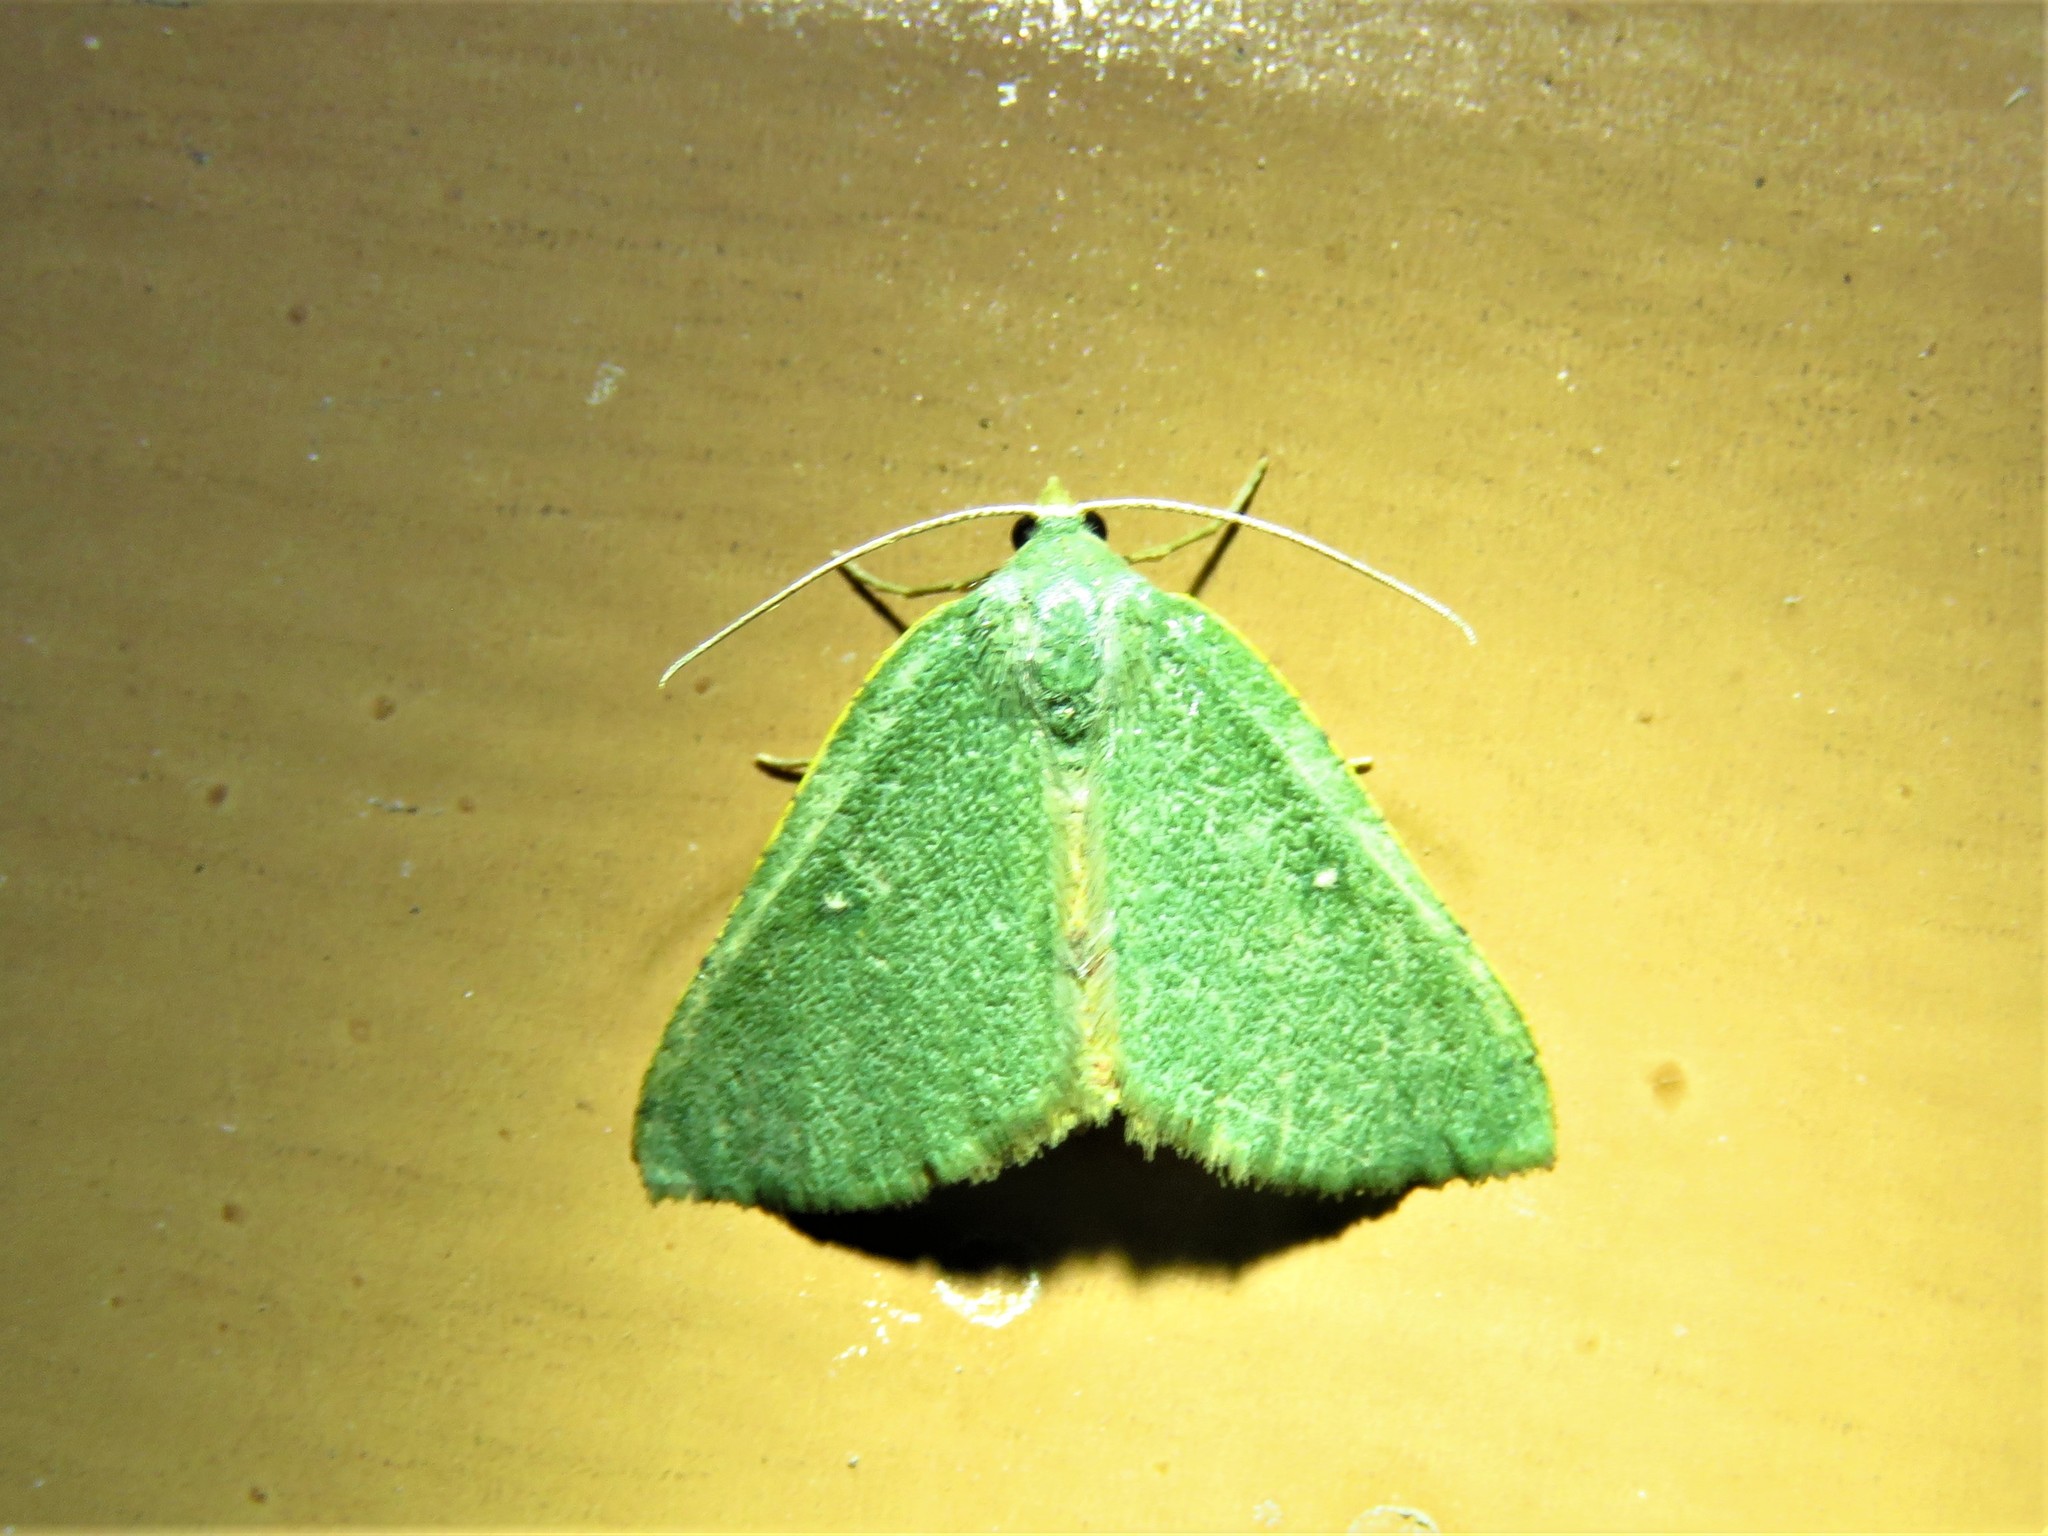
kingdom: Animalia
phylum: Arthropoda
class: Insecta
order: Lepidoptera
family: Geometridae
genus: Chloraspilates
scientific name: Chloraspilates bicoloraria
